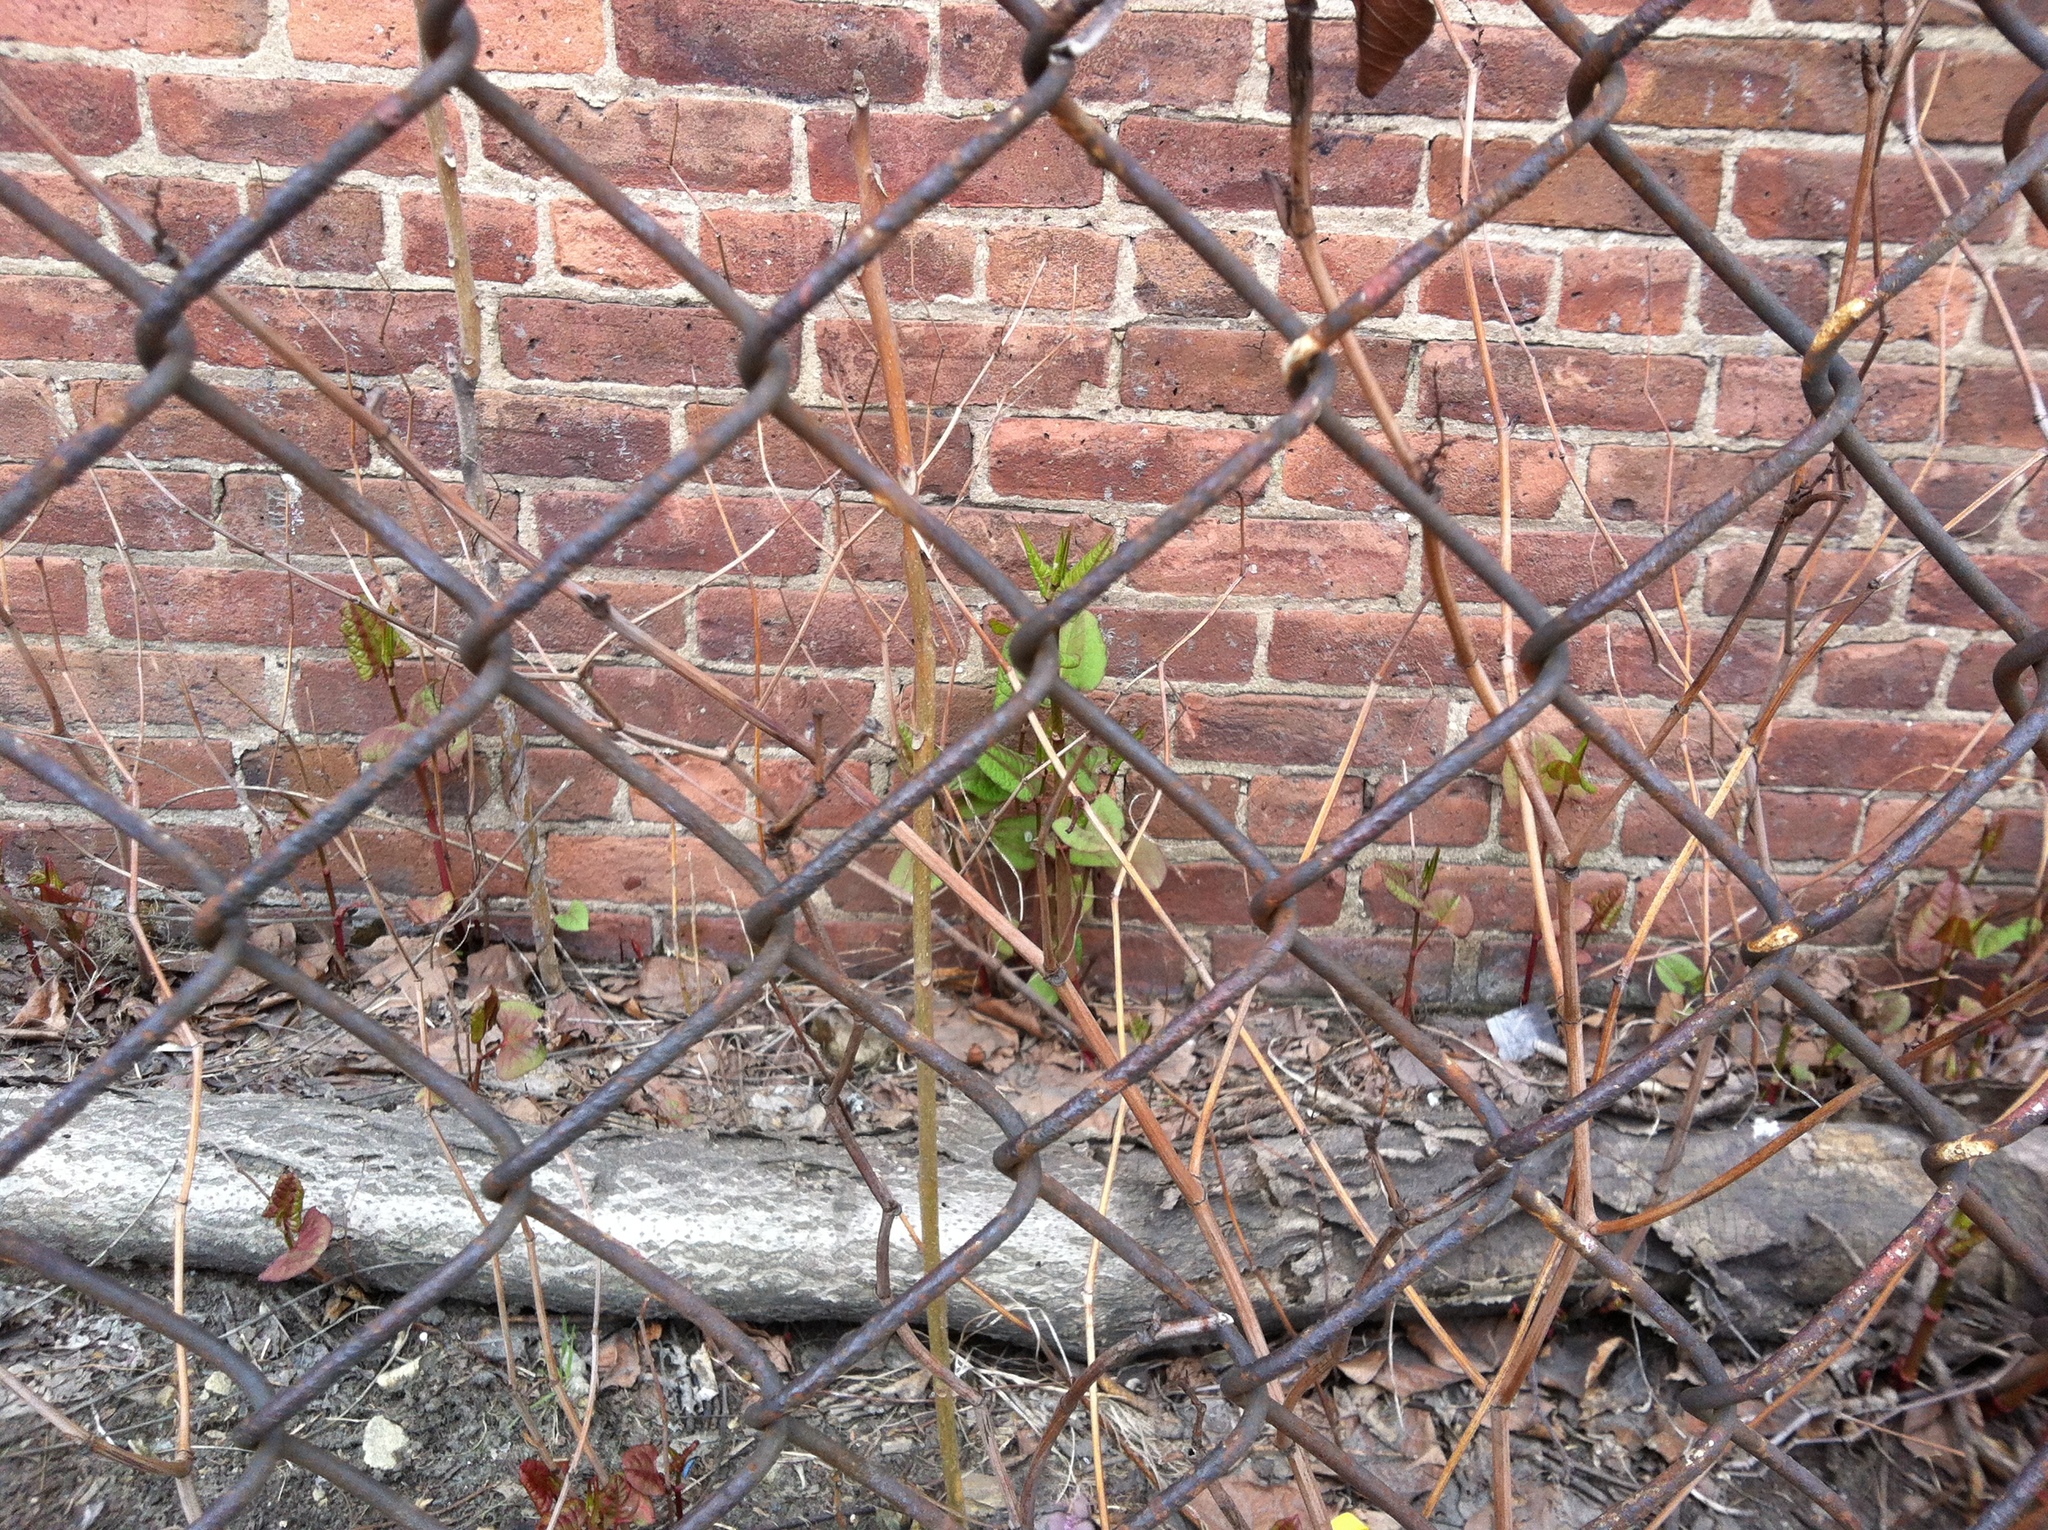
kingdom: Plantae
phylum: Tracheophyta
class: Magnoliopsida
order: Caryophyllales
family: Polygonaceae
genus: Reynoutria
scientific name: Reynoutria japonica
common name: Japanese knotweed
